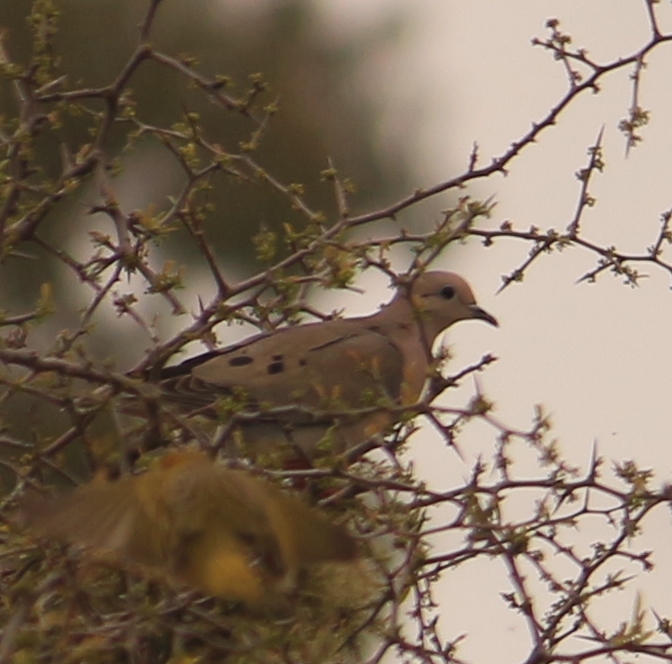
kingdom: Animalia
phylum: Chordata
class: Aves
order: Columbiformes
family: Columbidae
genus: Zenaida
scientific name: Zenaida auriculata
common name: Eared dove
